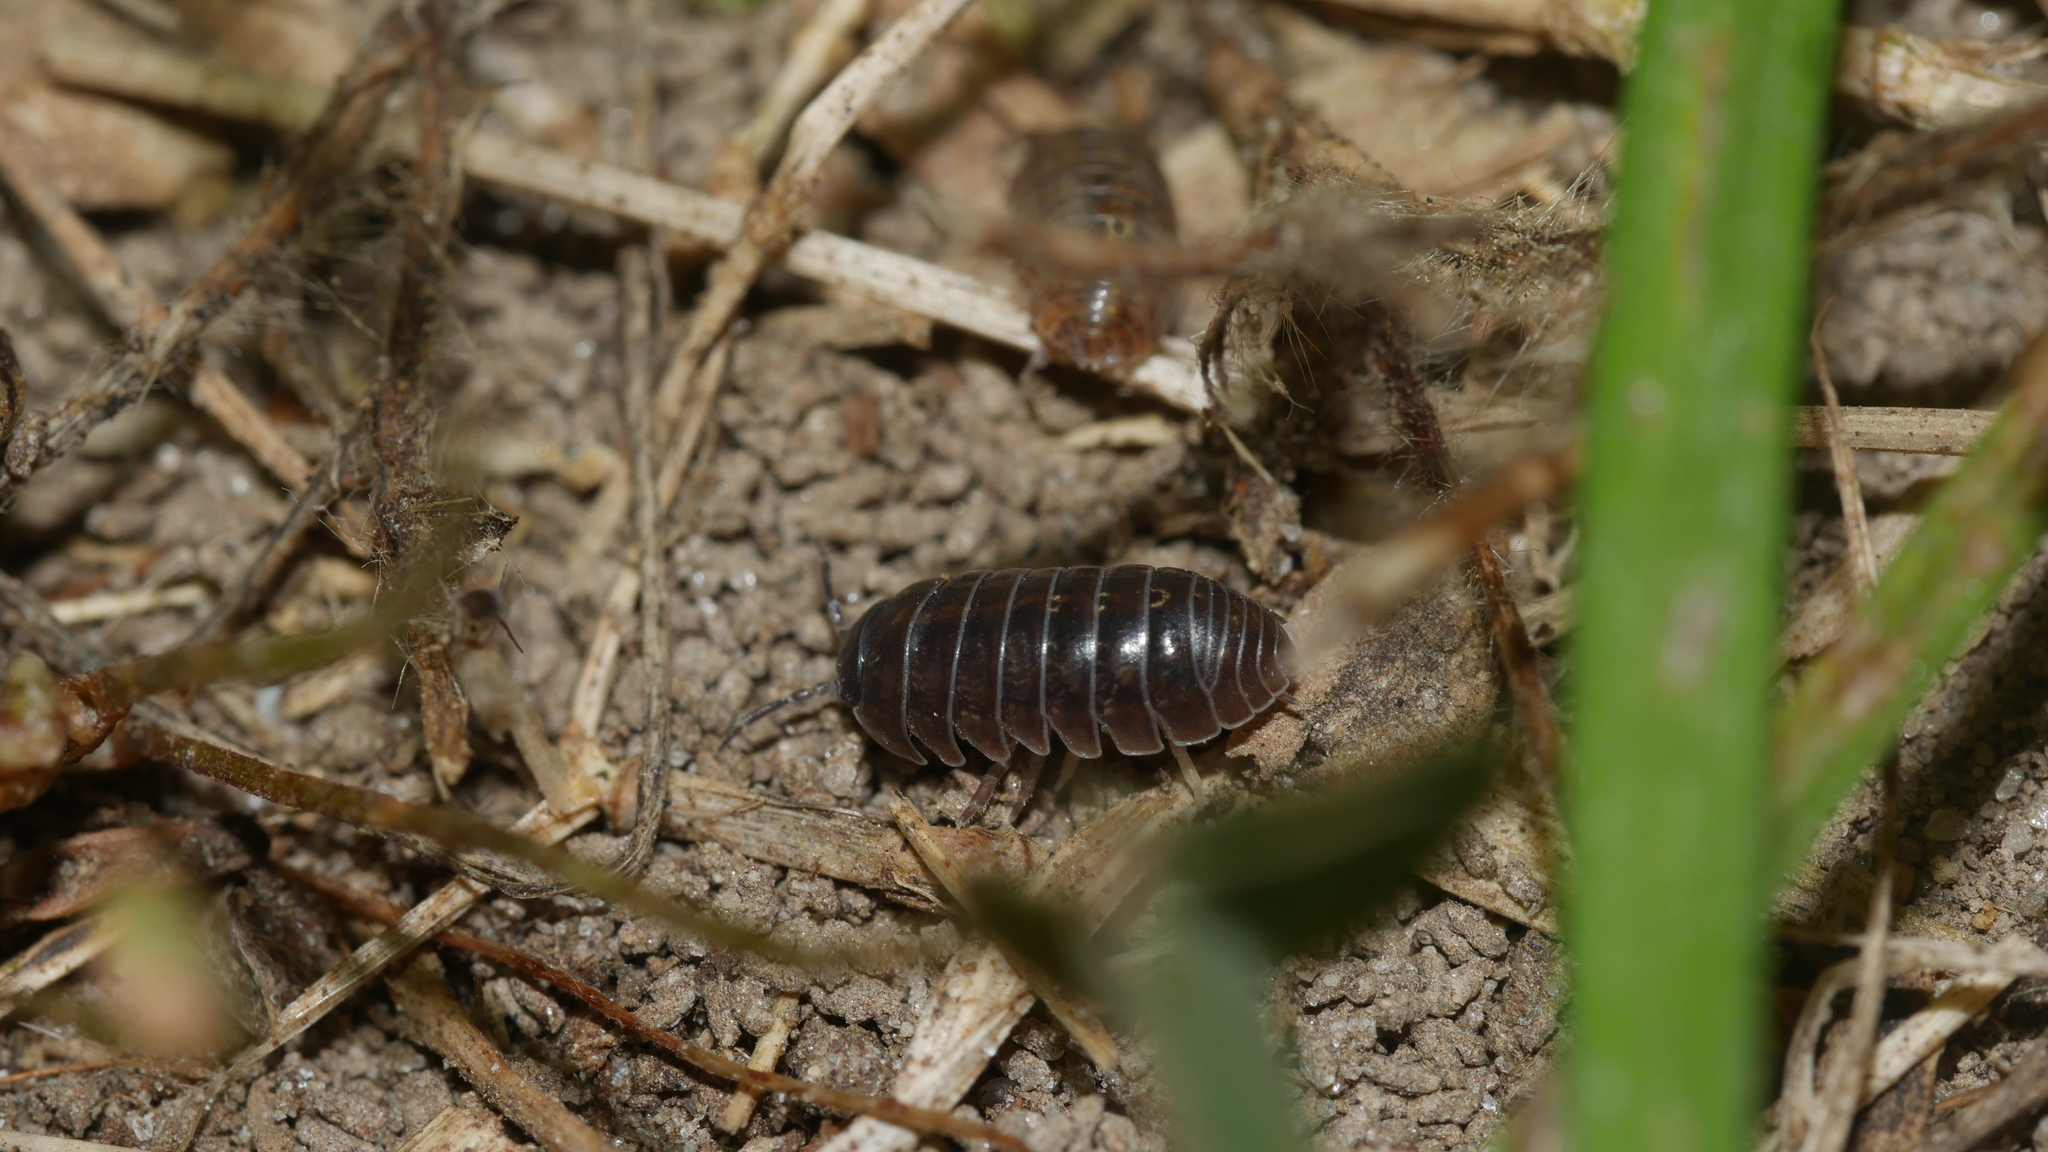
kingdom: Animalia
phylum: Arthropoda
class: Malacostraca
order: Isopoda
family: Armadillidiidae
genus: Armadillidium
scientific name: Armadillidium vulgare
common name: Common pill woodlouse
